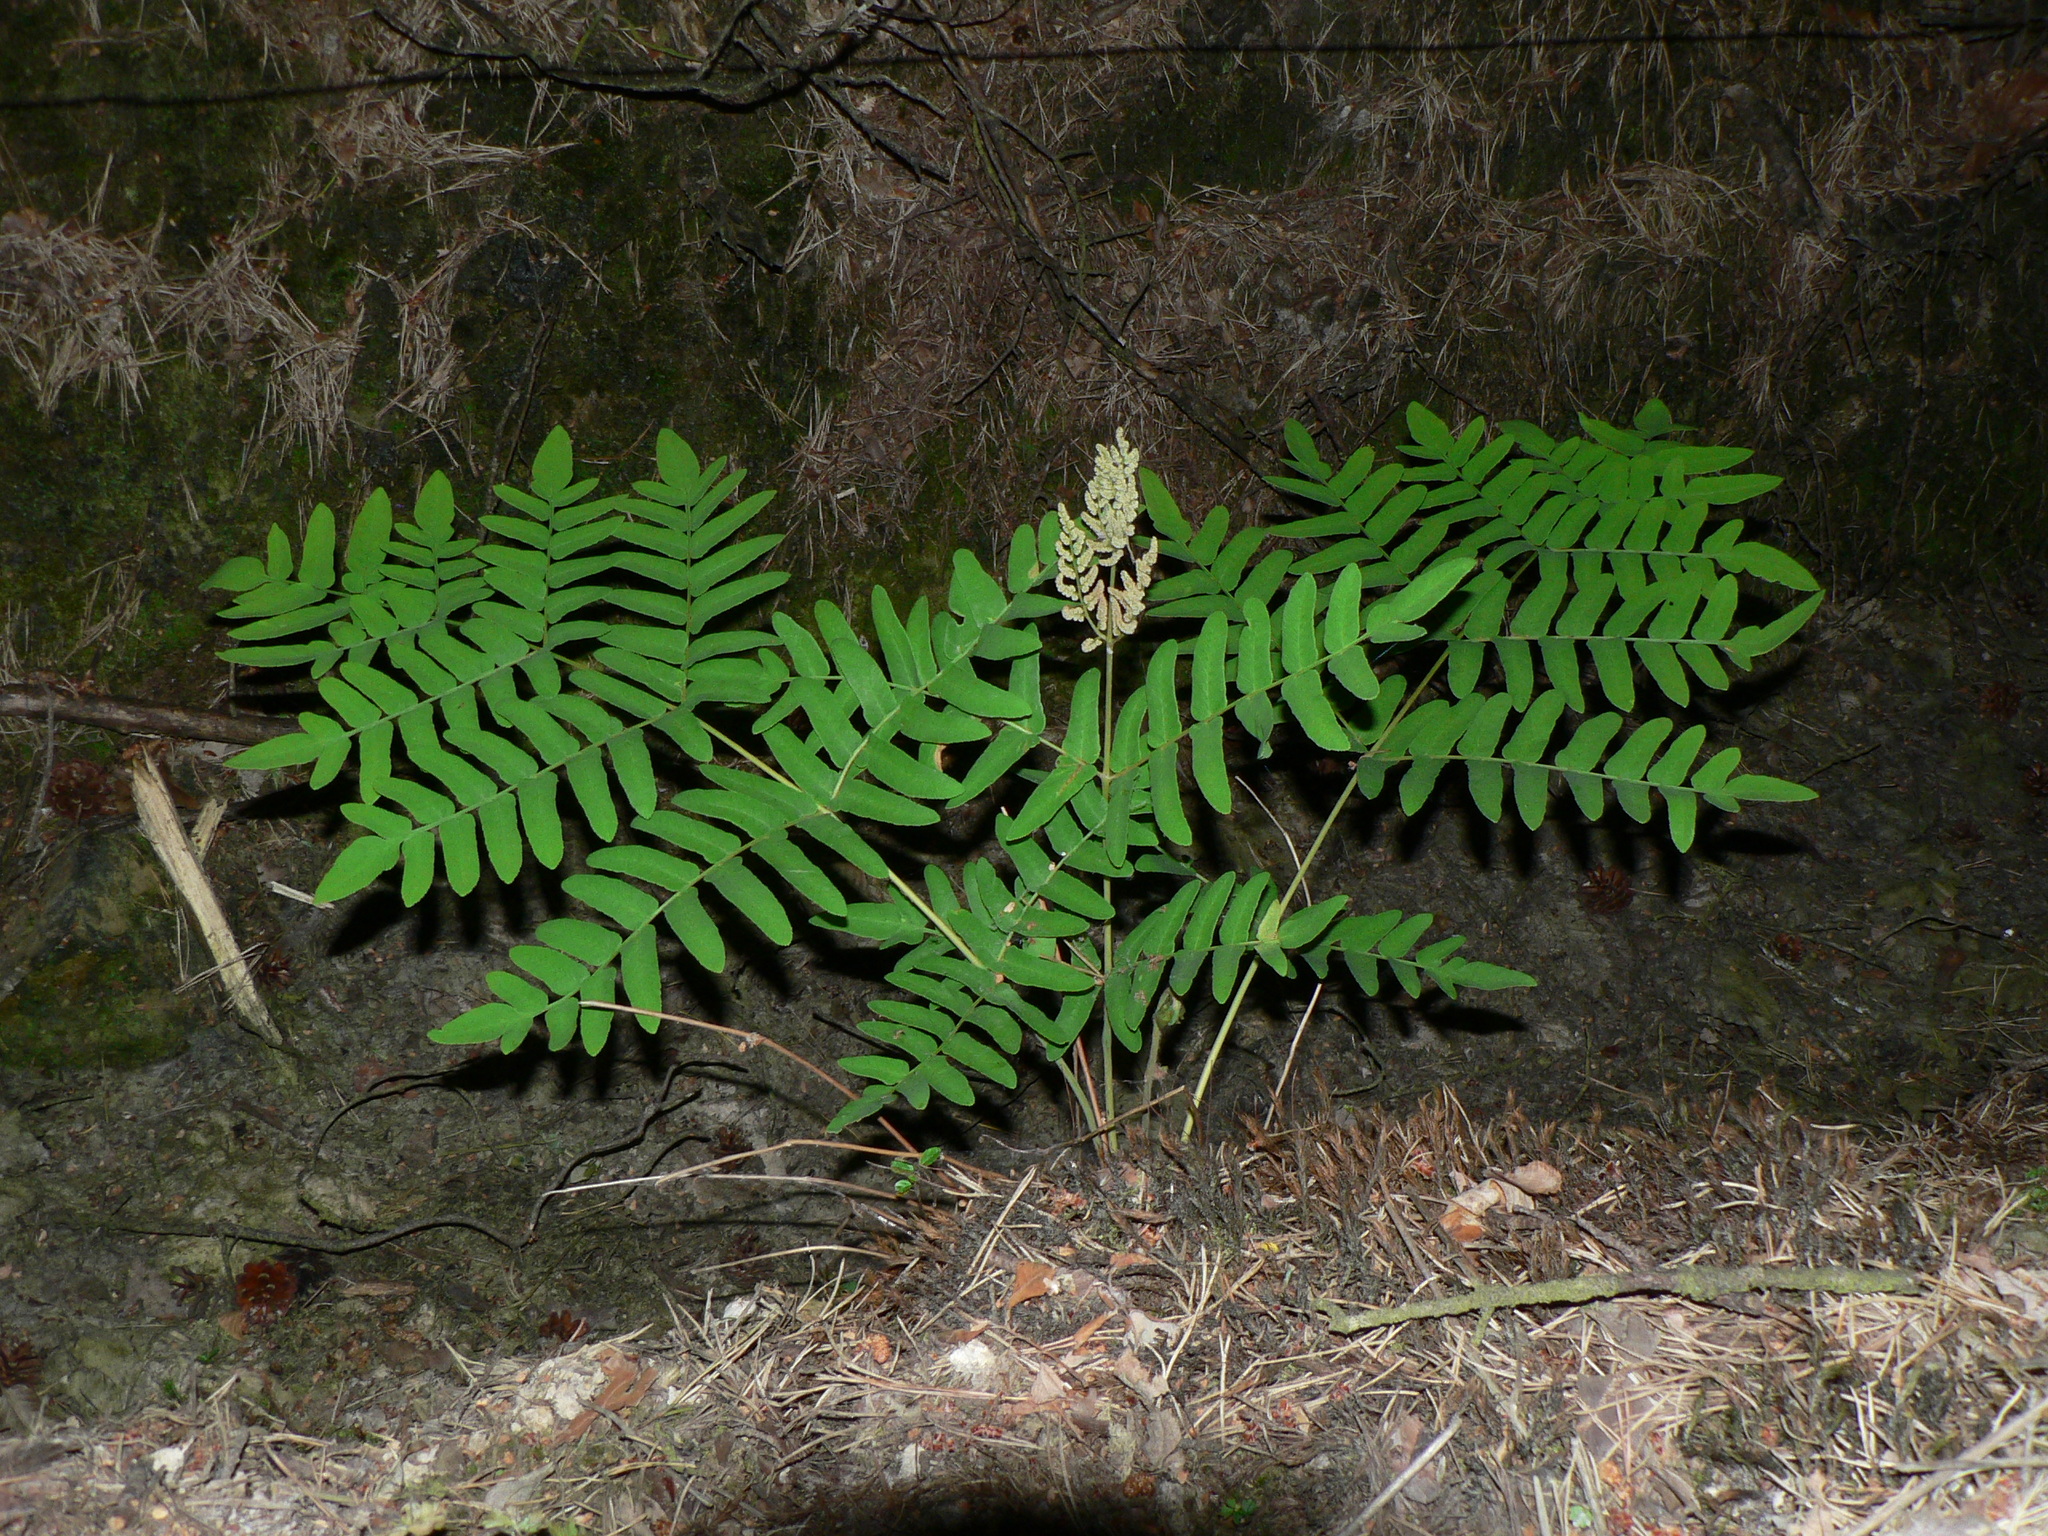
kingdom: Plantae
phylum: Tracheophyta
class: Polypodiopsida
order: Osmundales
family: Osmundaceae
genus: Osmunda
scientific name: Osmunda regalis
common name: Royal fern
